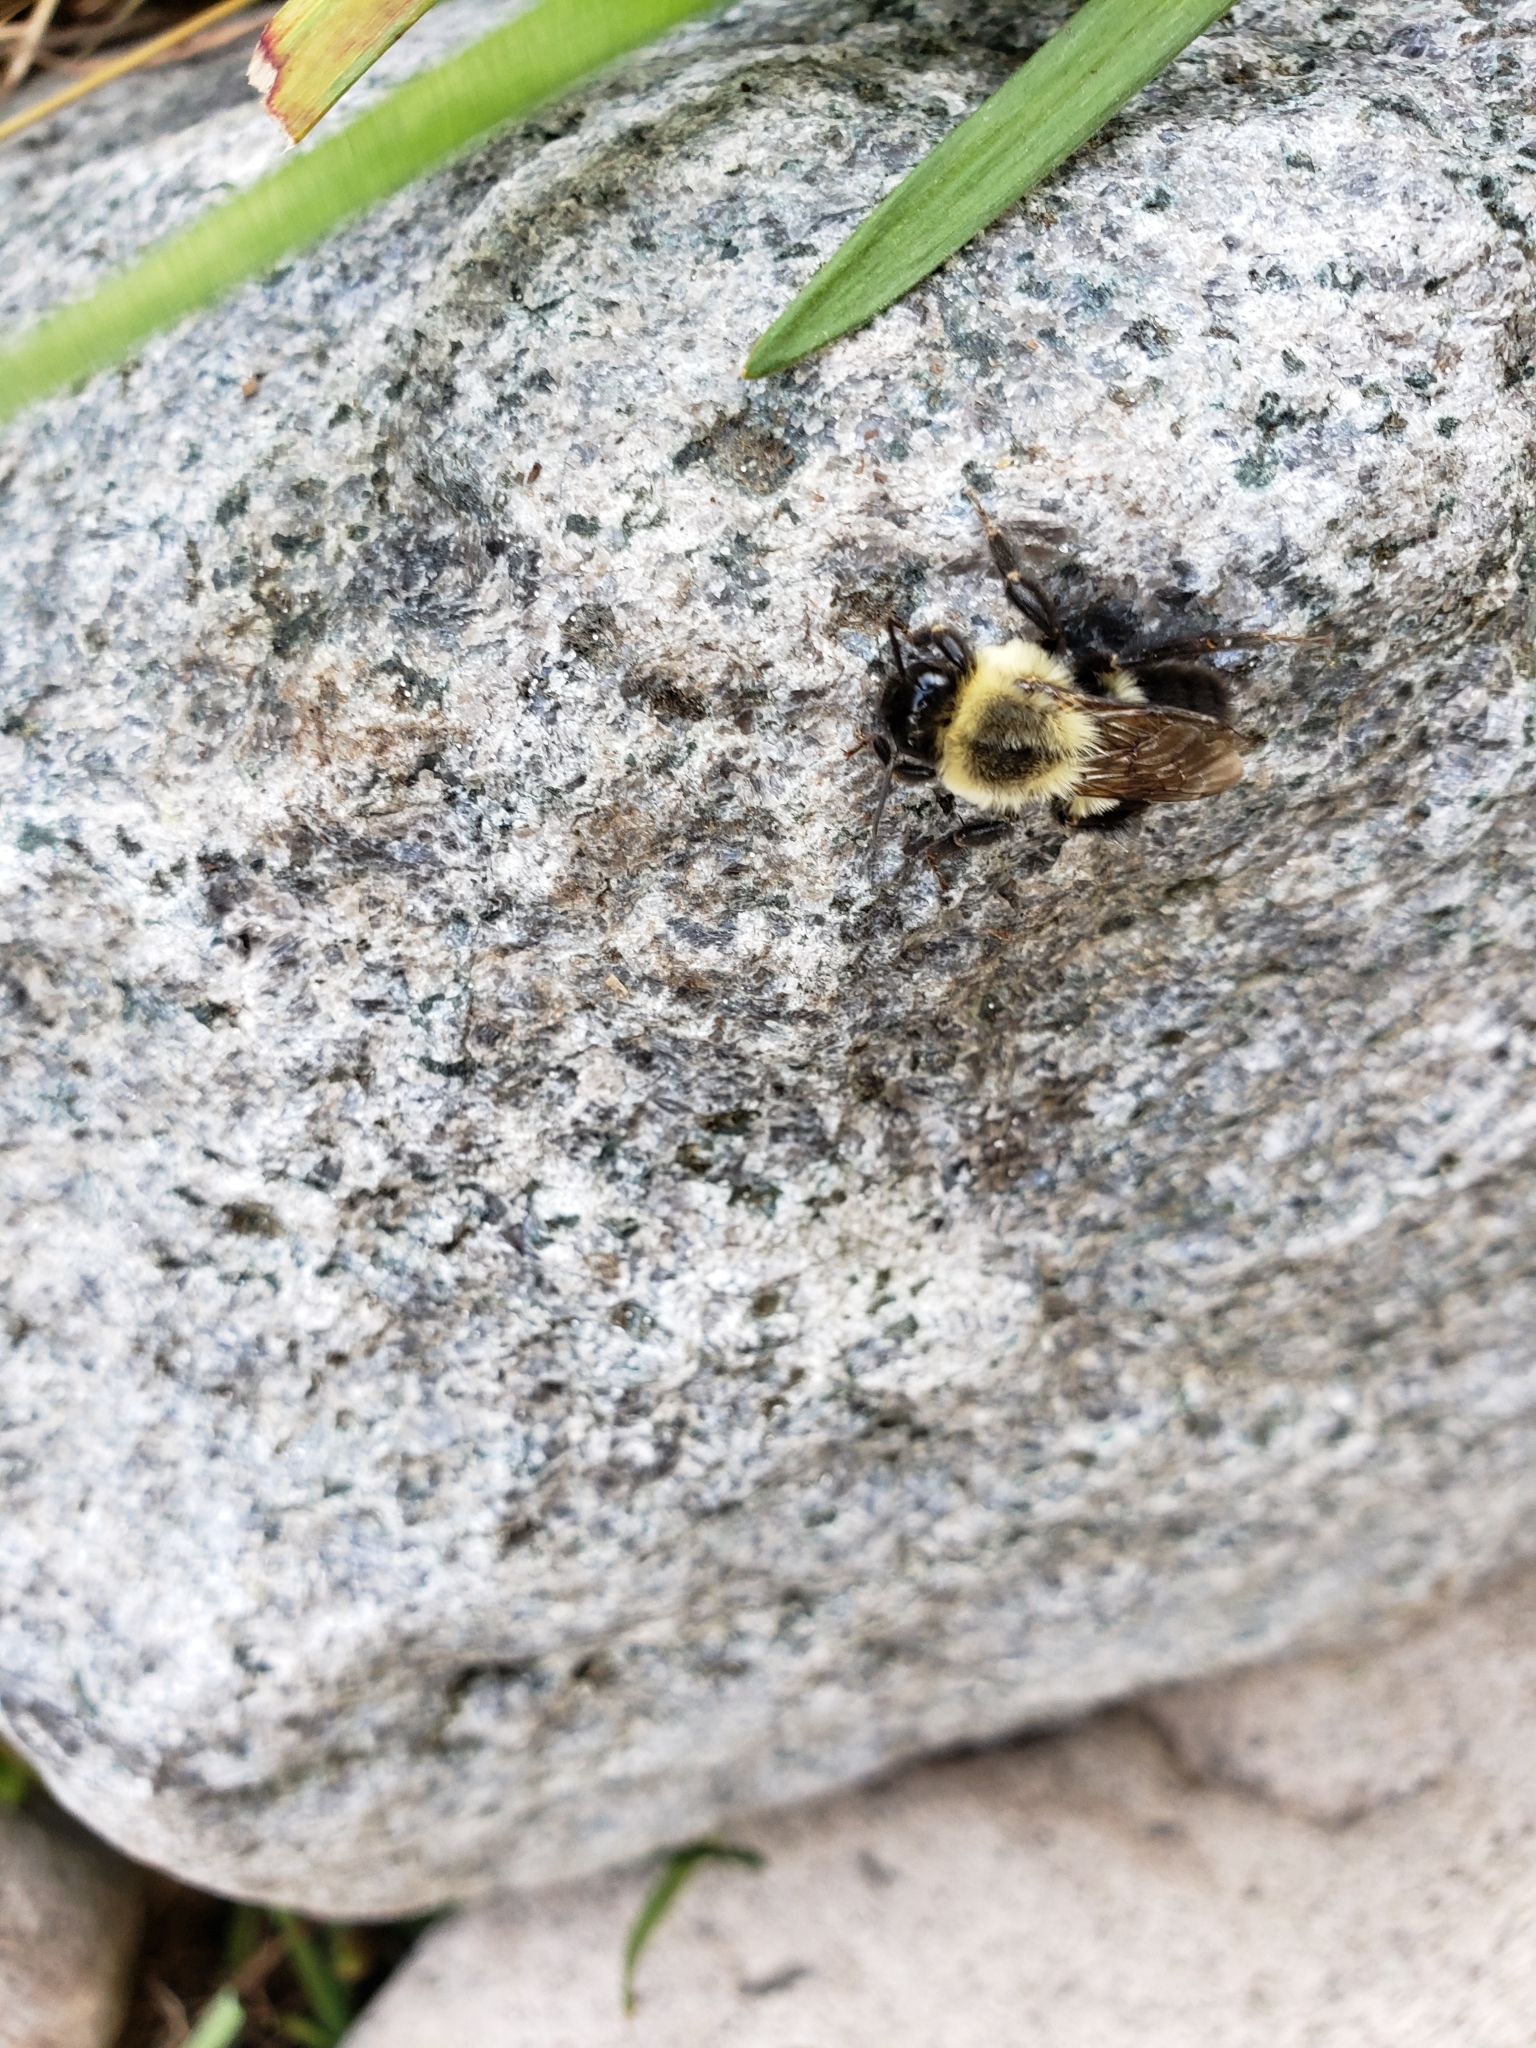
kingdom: Animalia
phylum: Arthropoda
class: Insecta
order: Hymenoptera
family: Apidae
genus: Bombus
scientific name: Bombus impatiens
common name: Common eastern bumble bee
